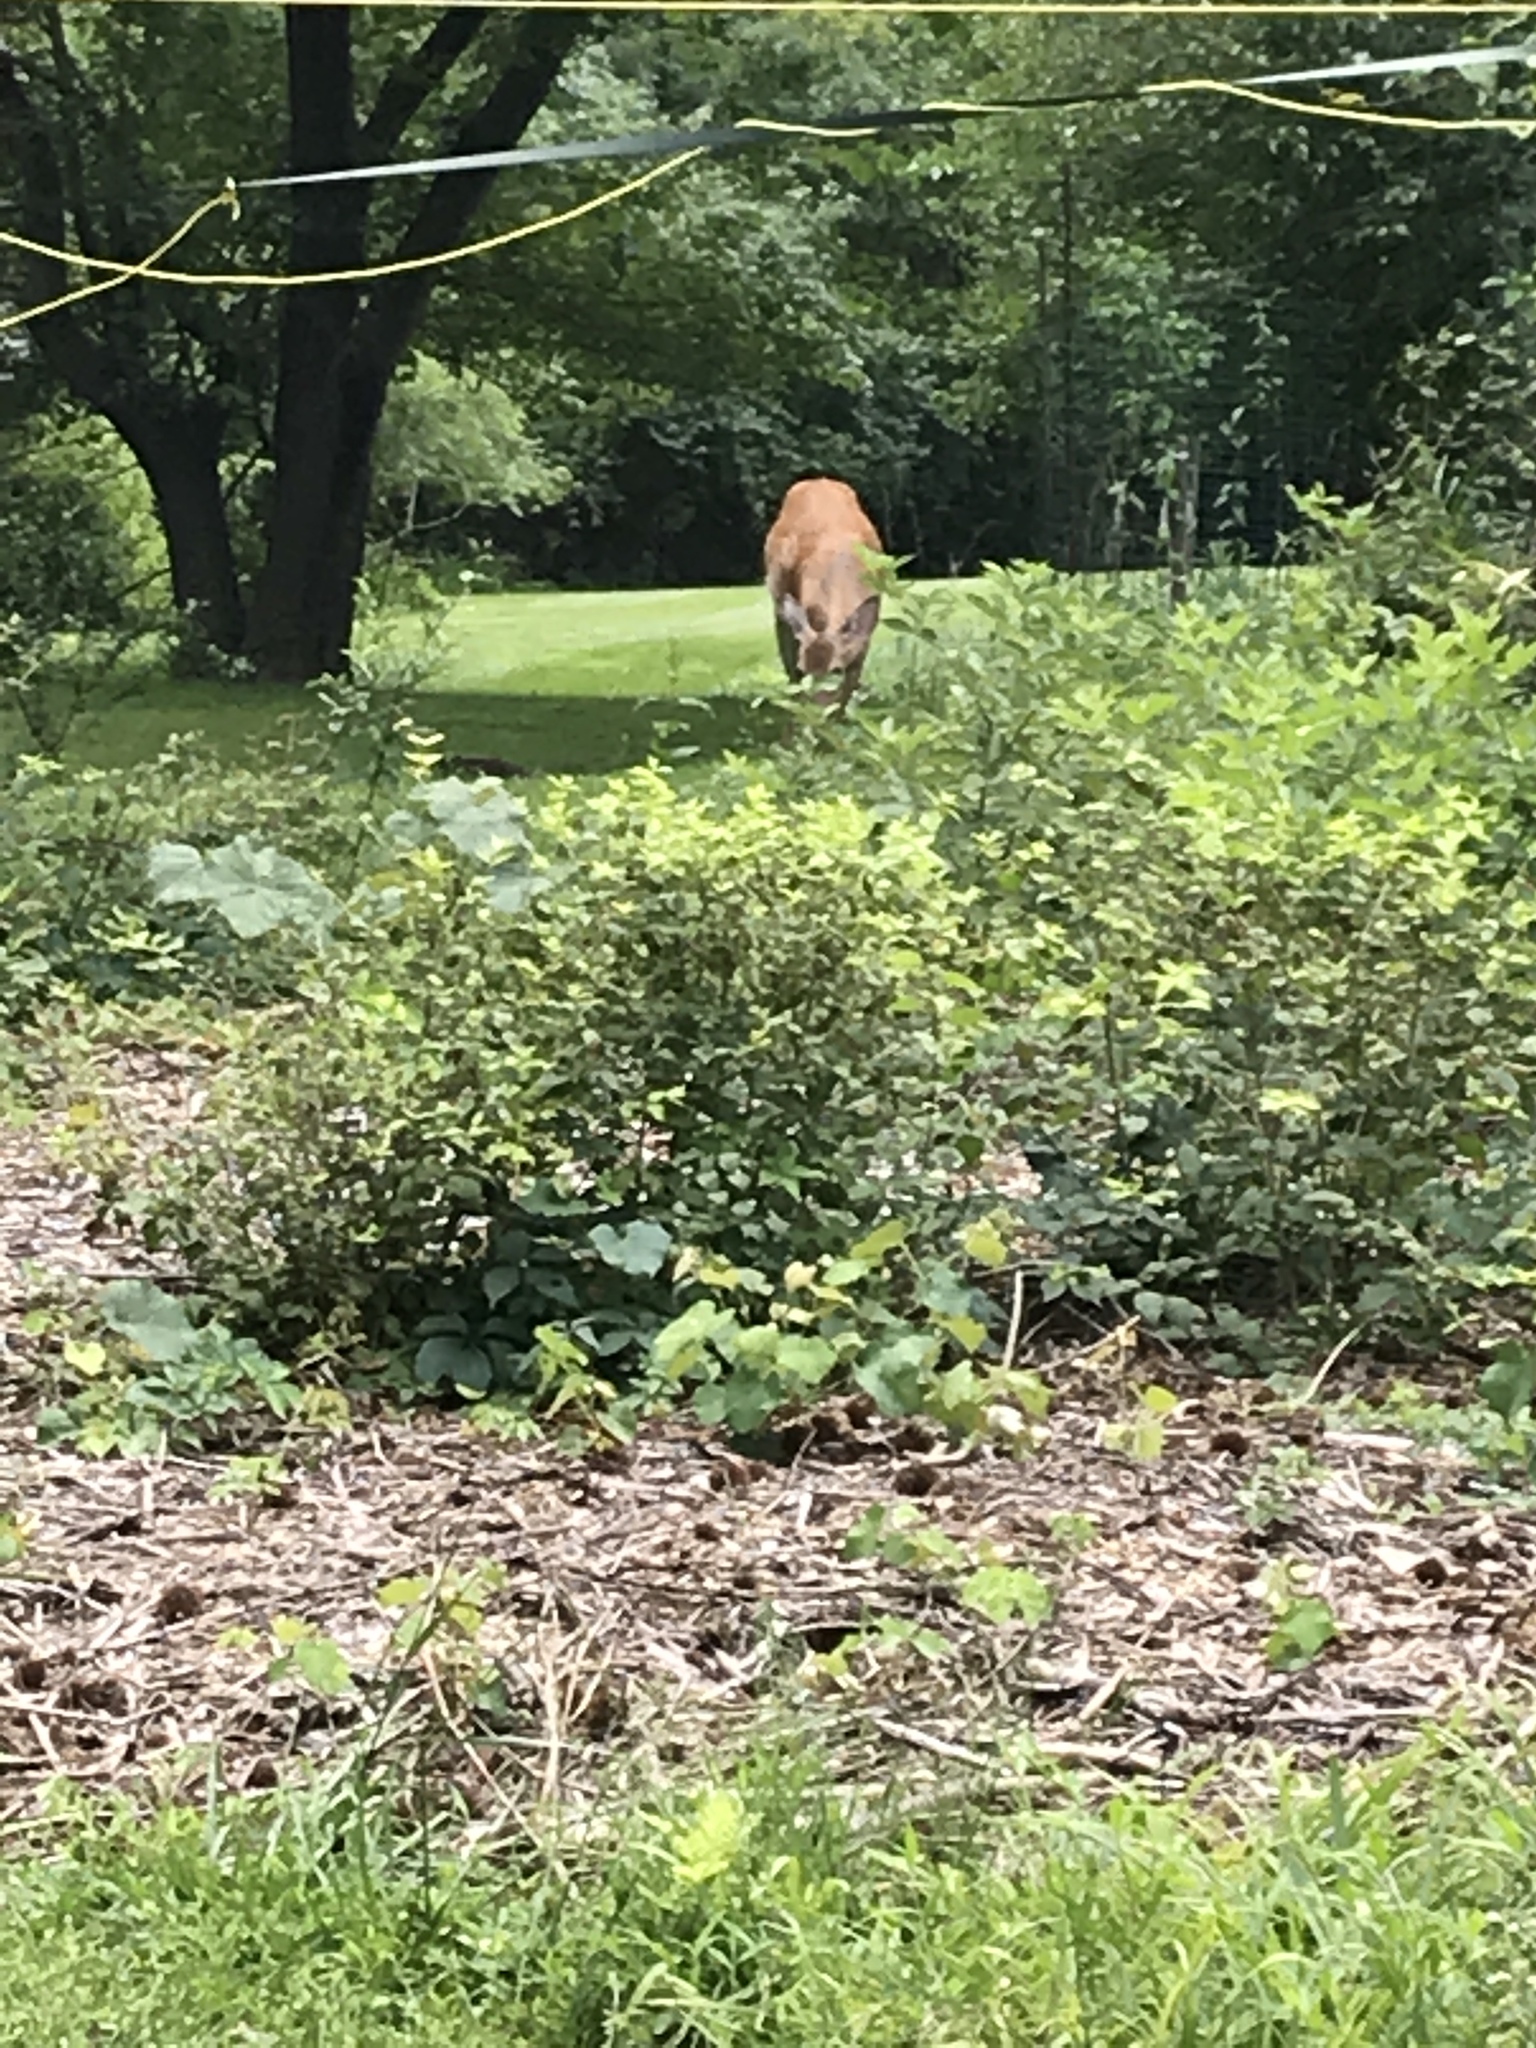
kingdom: Animalia
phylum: Chordata
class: Mammalia
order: Artiodactyla
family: Cervidae
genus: Odocoileus
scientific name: Odocoileus virginianus
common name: White-tailed deer
